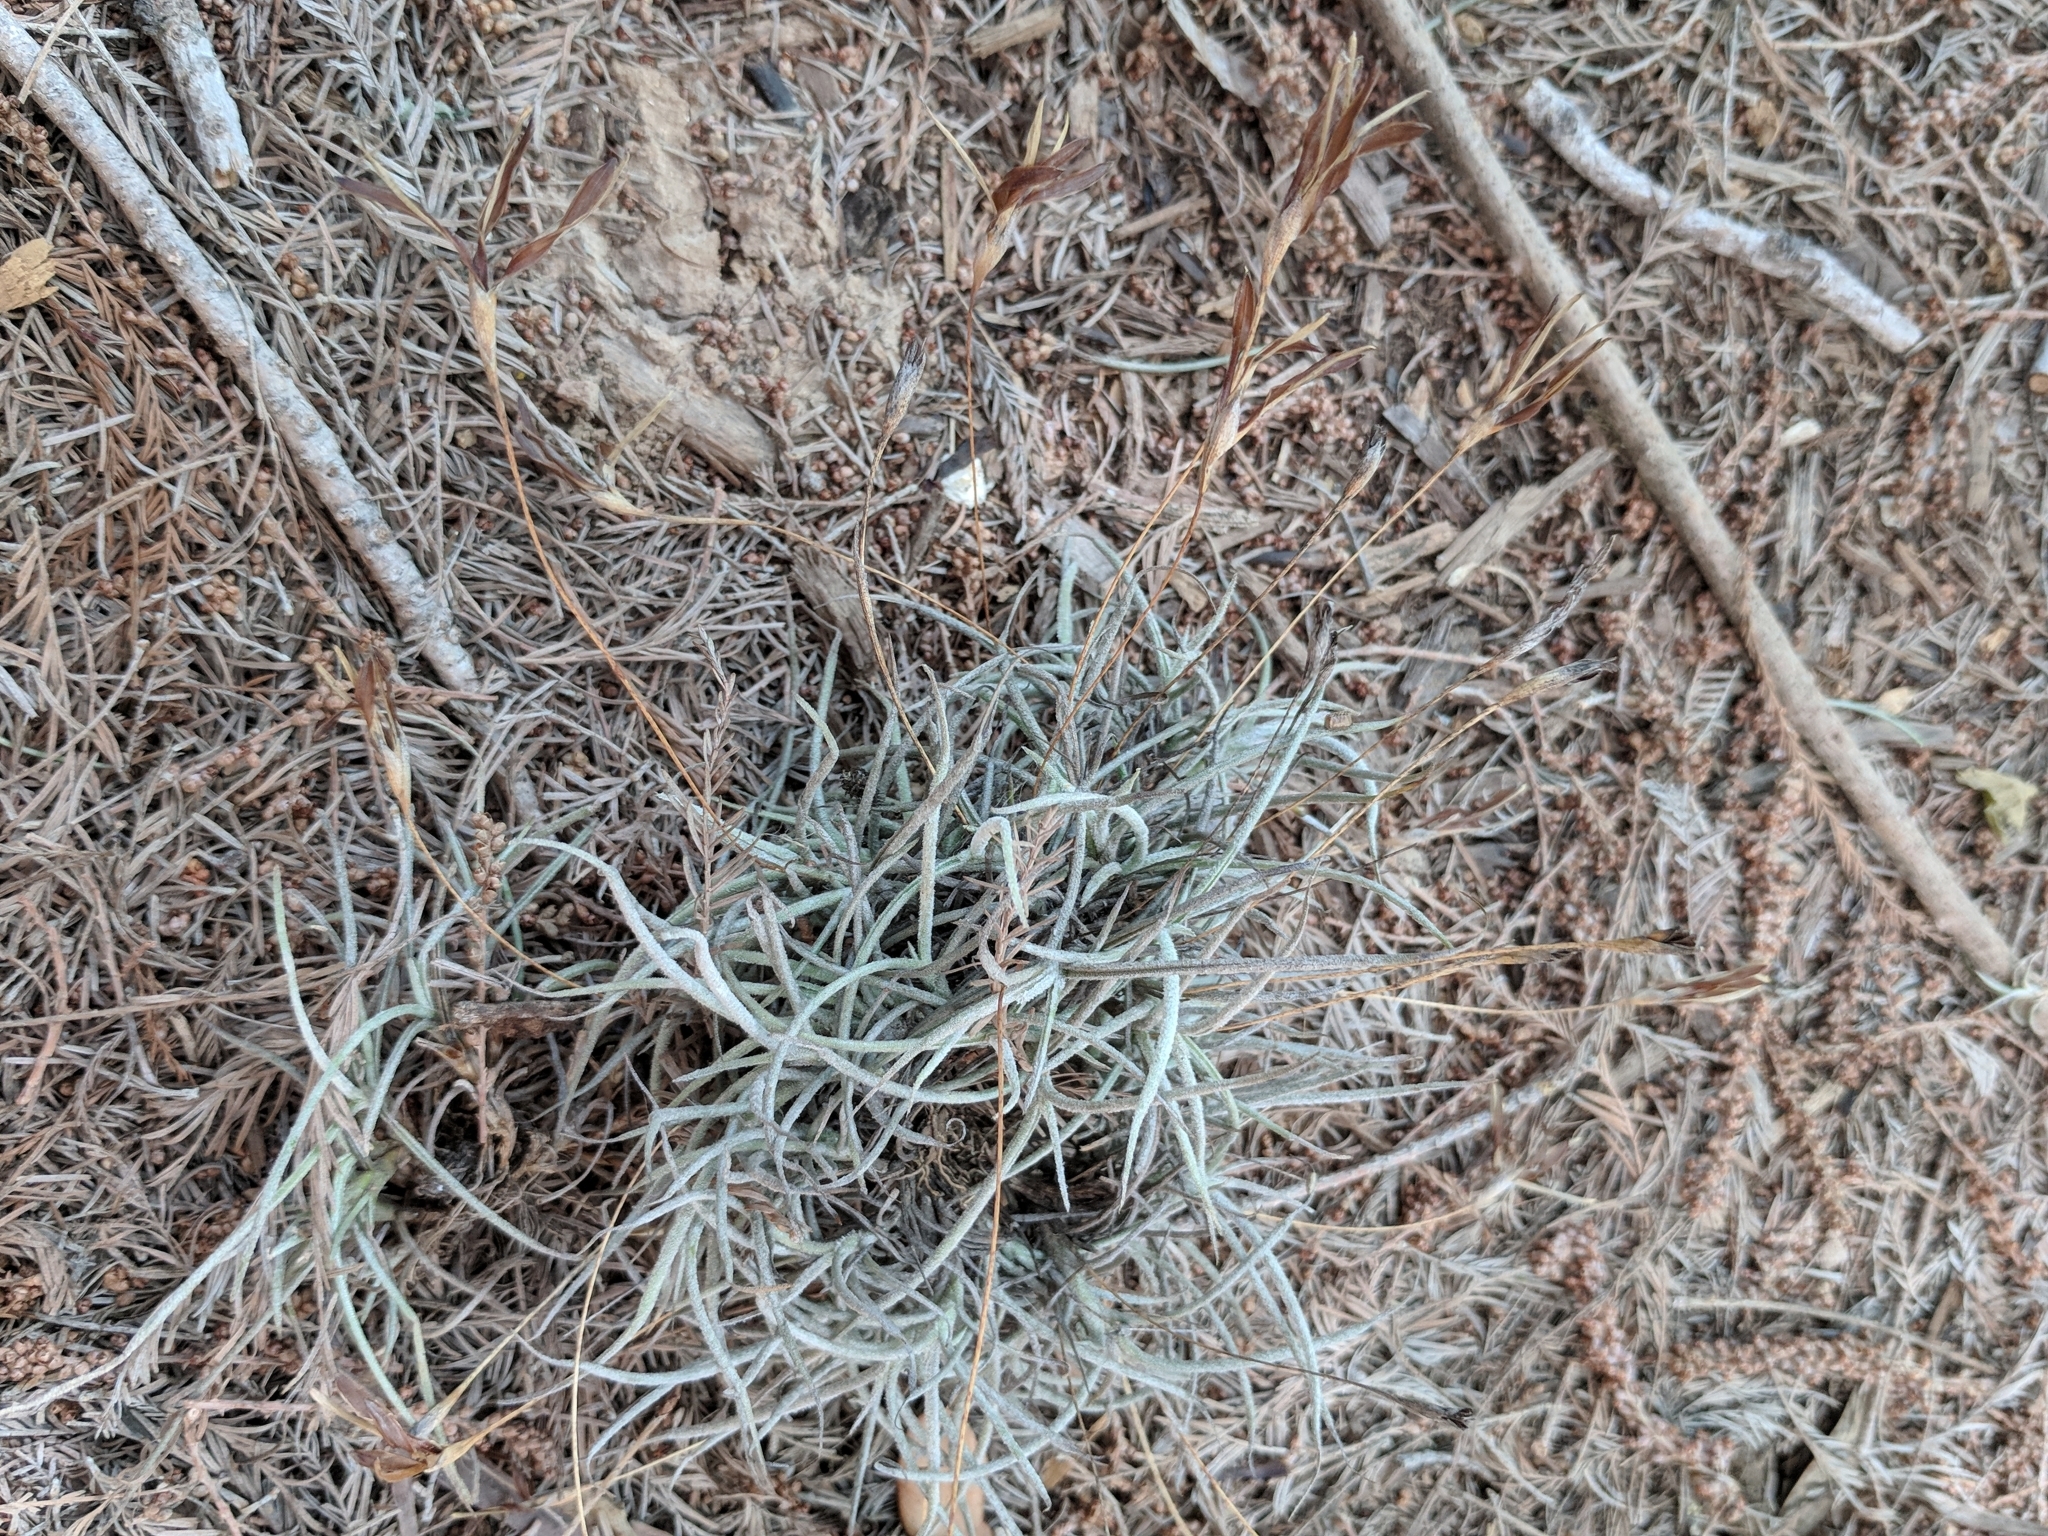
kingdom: Plantae
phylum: Tracheophyta
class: Liliopsida
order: Poales
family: Bromeliaceae
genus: Tillandsia
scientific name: Tillandsia recurvata
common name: Small ballmoss
